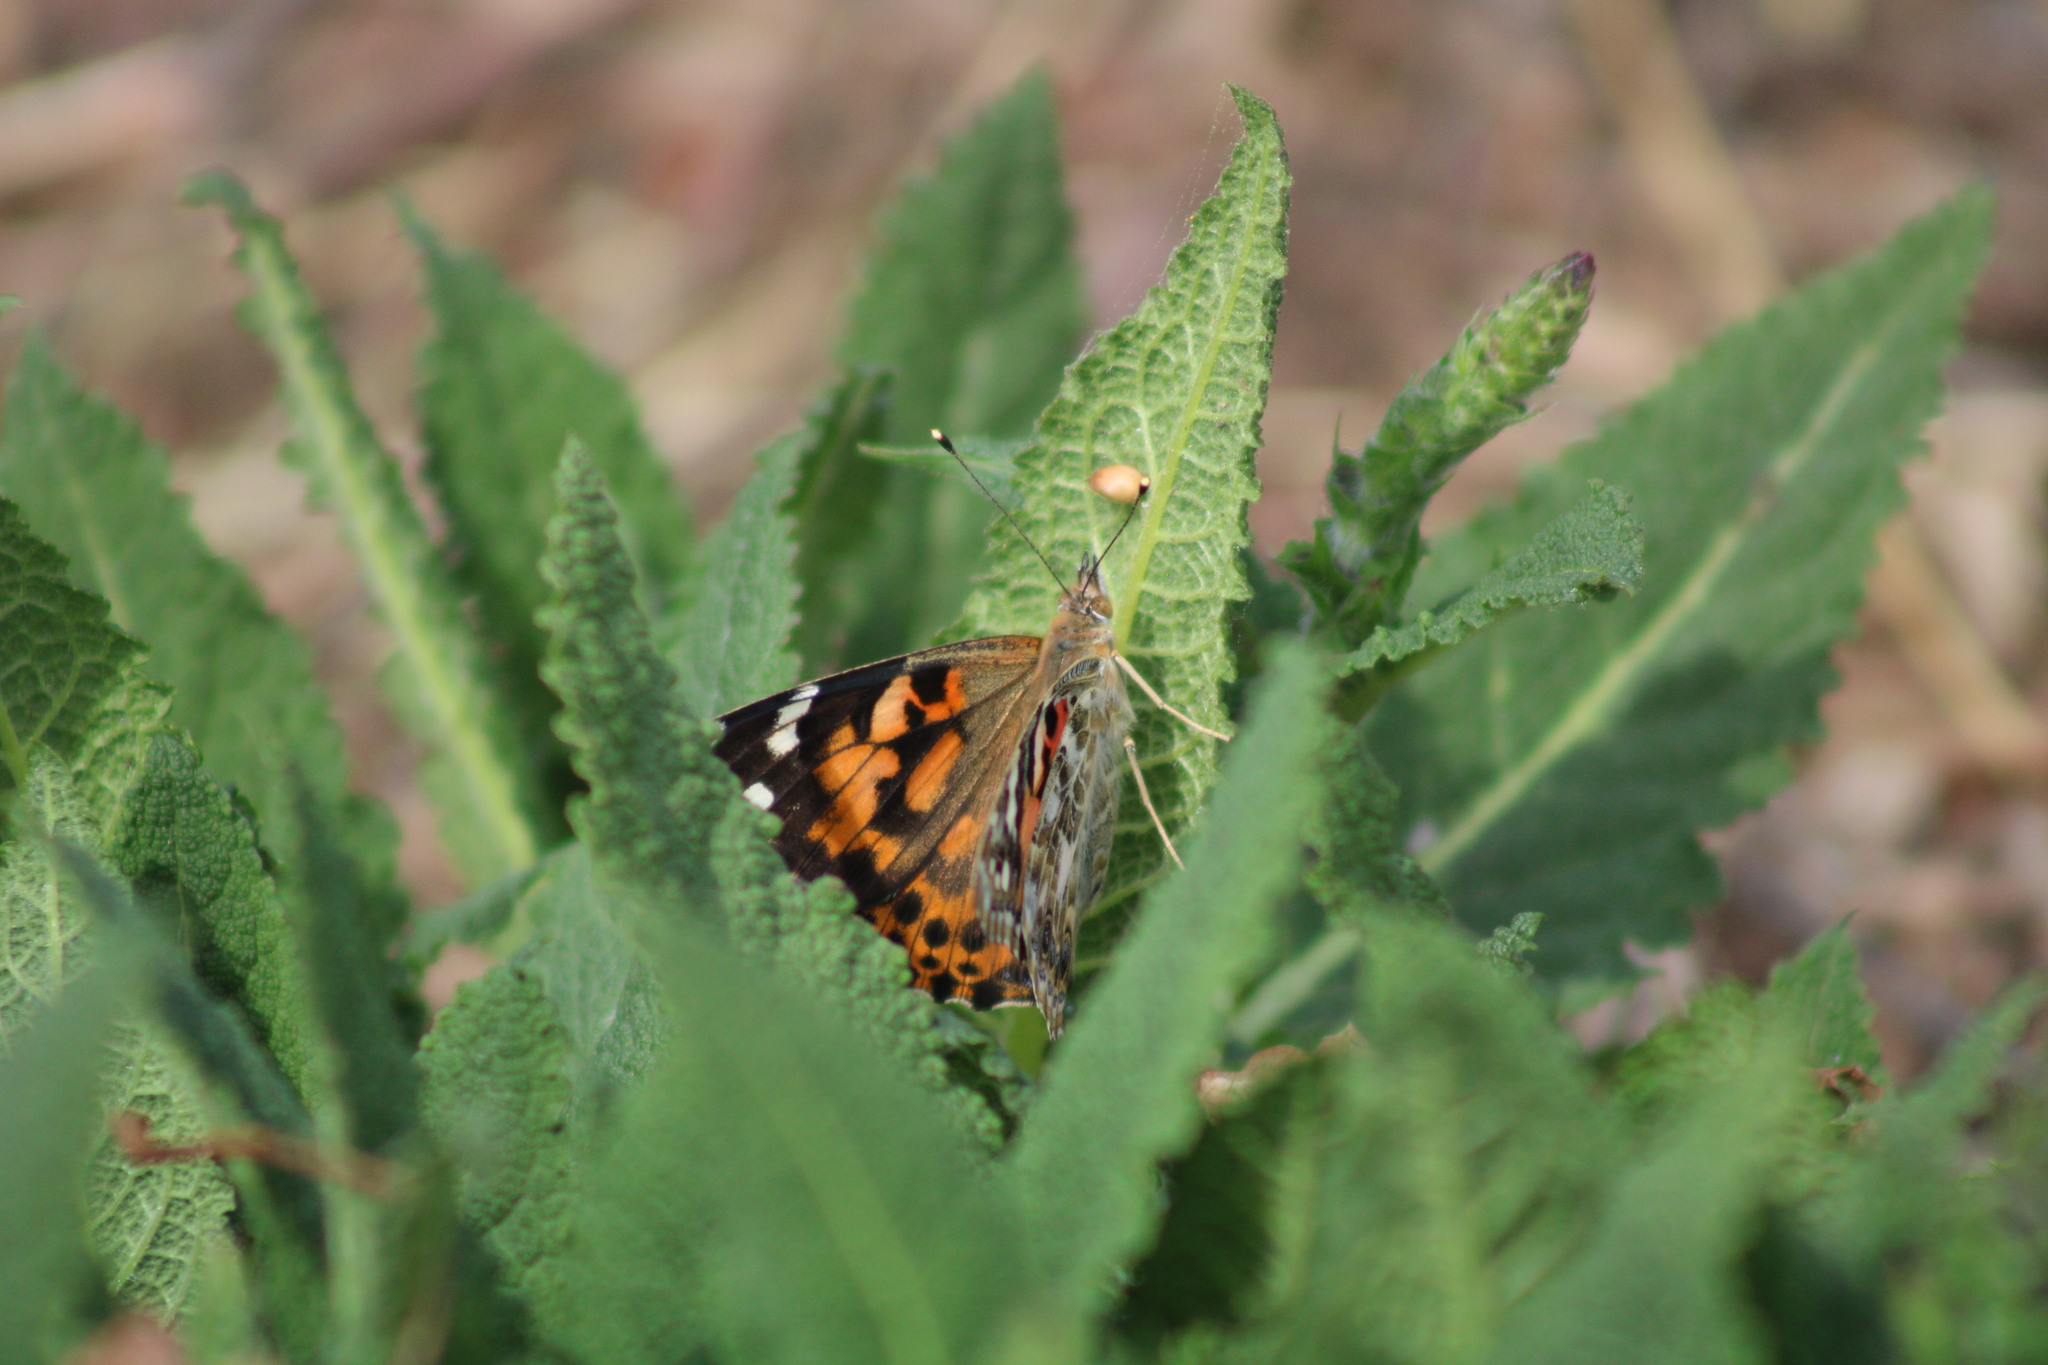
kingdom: Animalia
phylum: Arthropoda
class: Insecta
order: Lepidoptera
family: Nymphalidae
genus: Vanessa
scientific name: Vanessa cardui
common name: Painted lady
